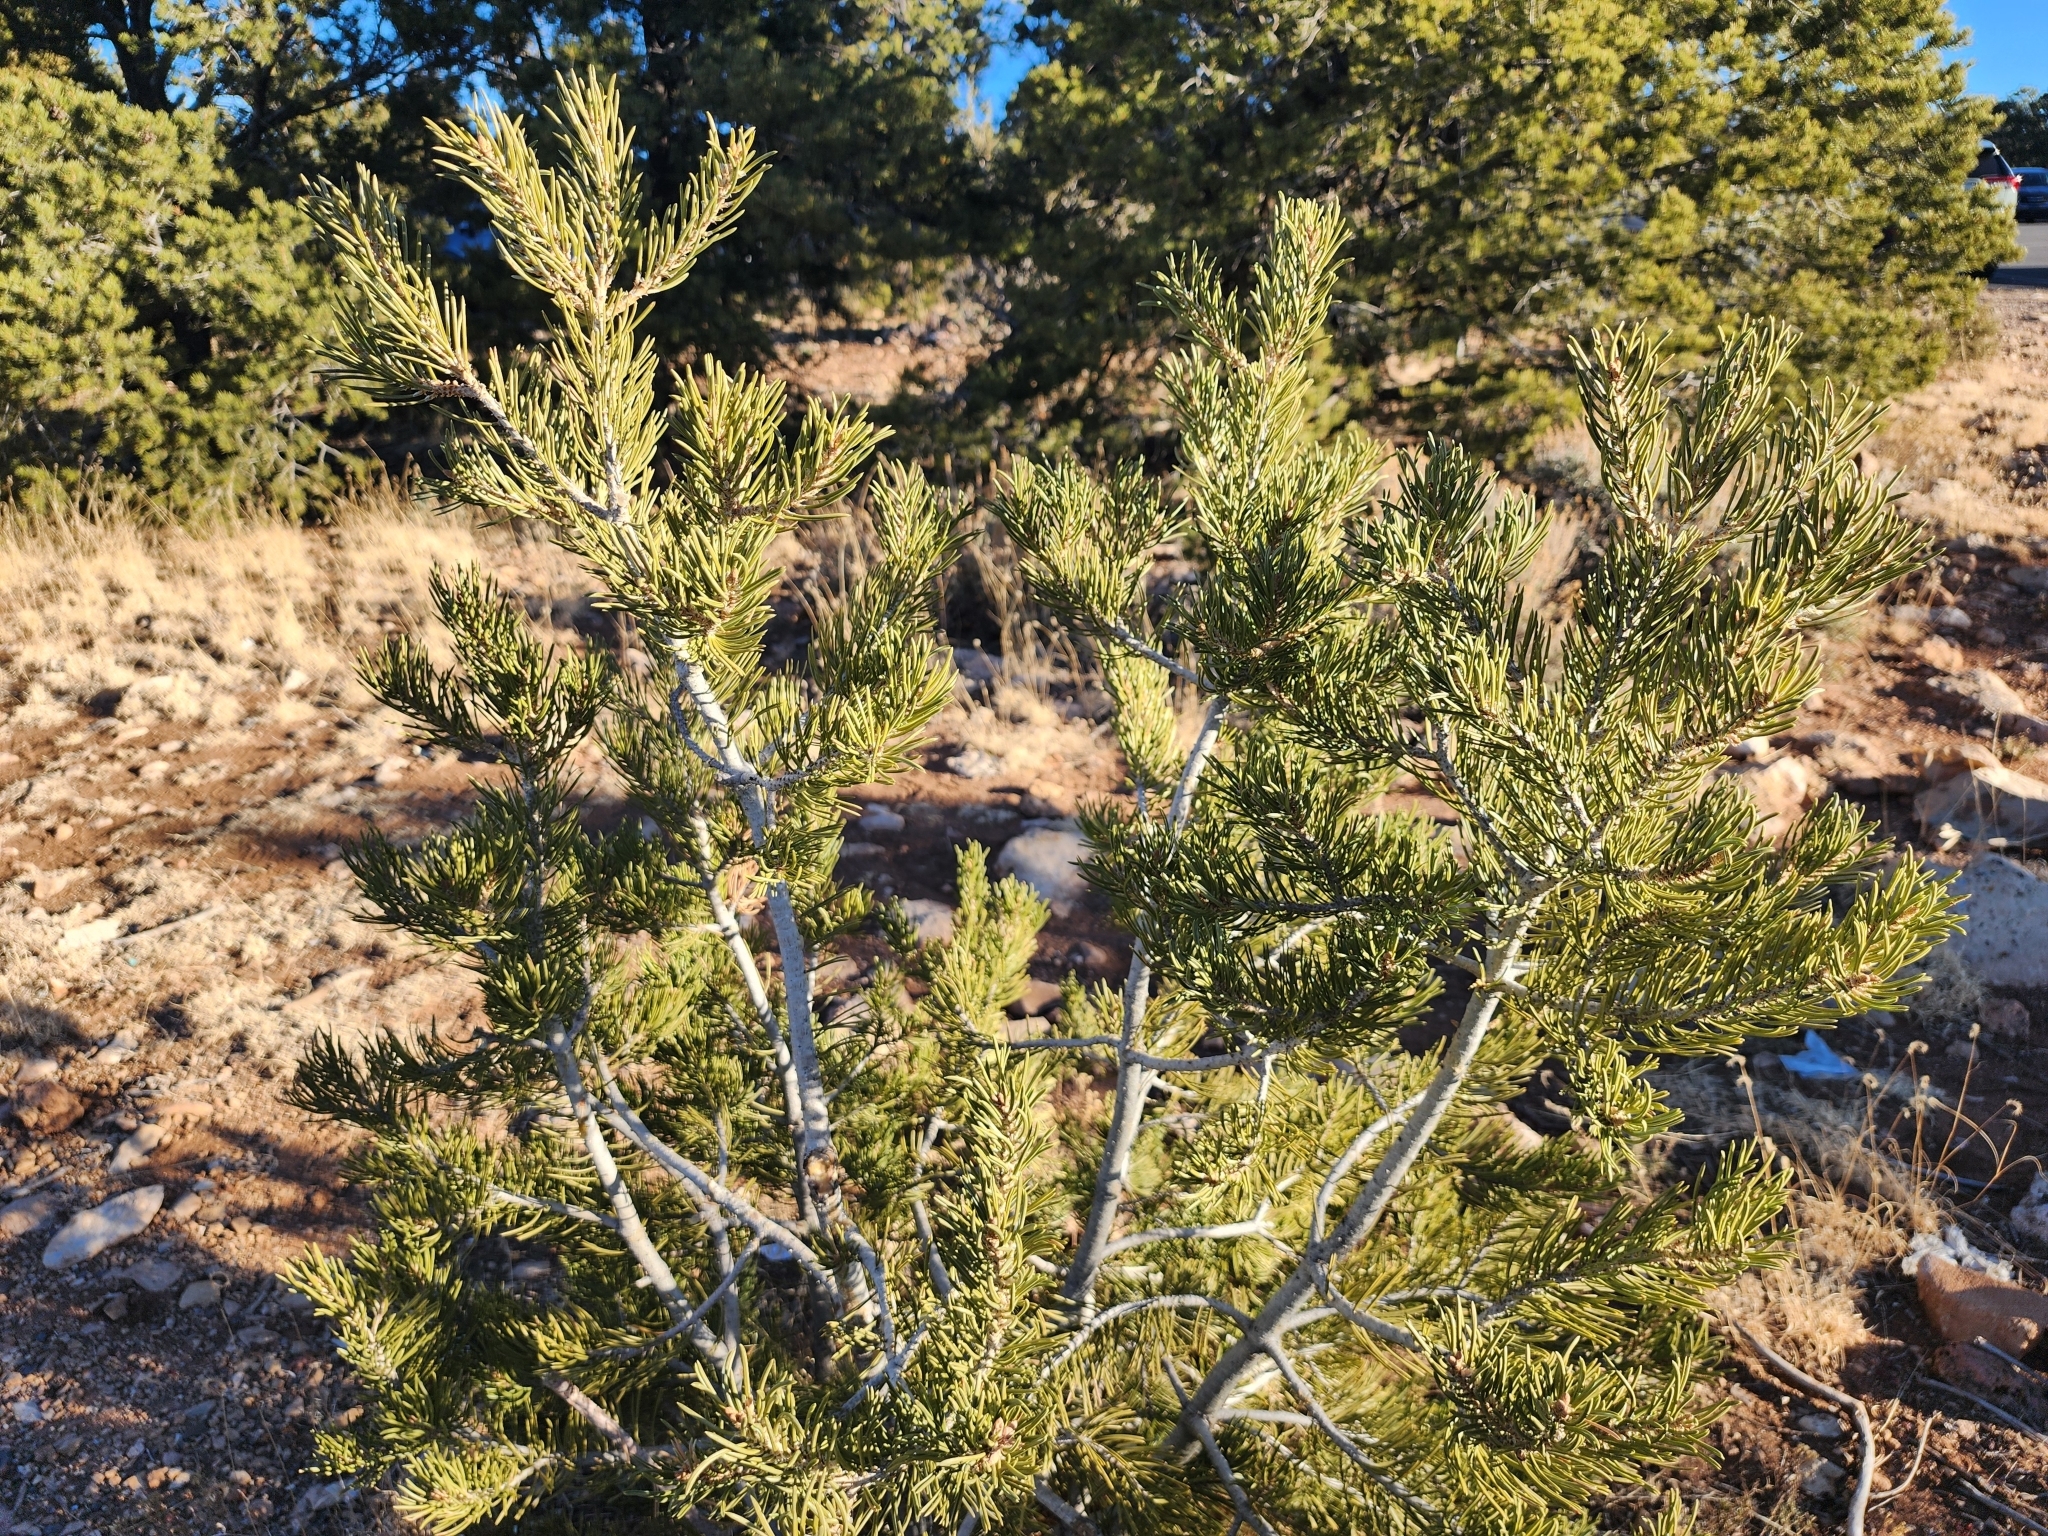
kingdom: Plantae
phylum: Tracheophyta
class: Pinopsida
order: Pinales
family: Pinaceae
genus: Pinus
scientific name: Pinus edulis
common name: Colorado pinyon
